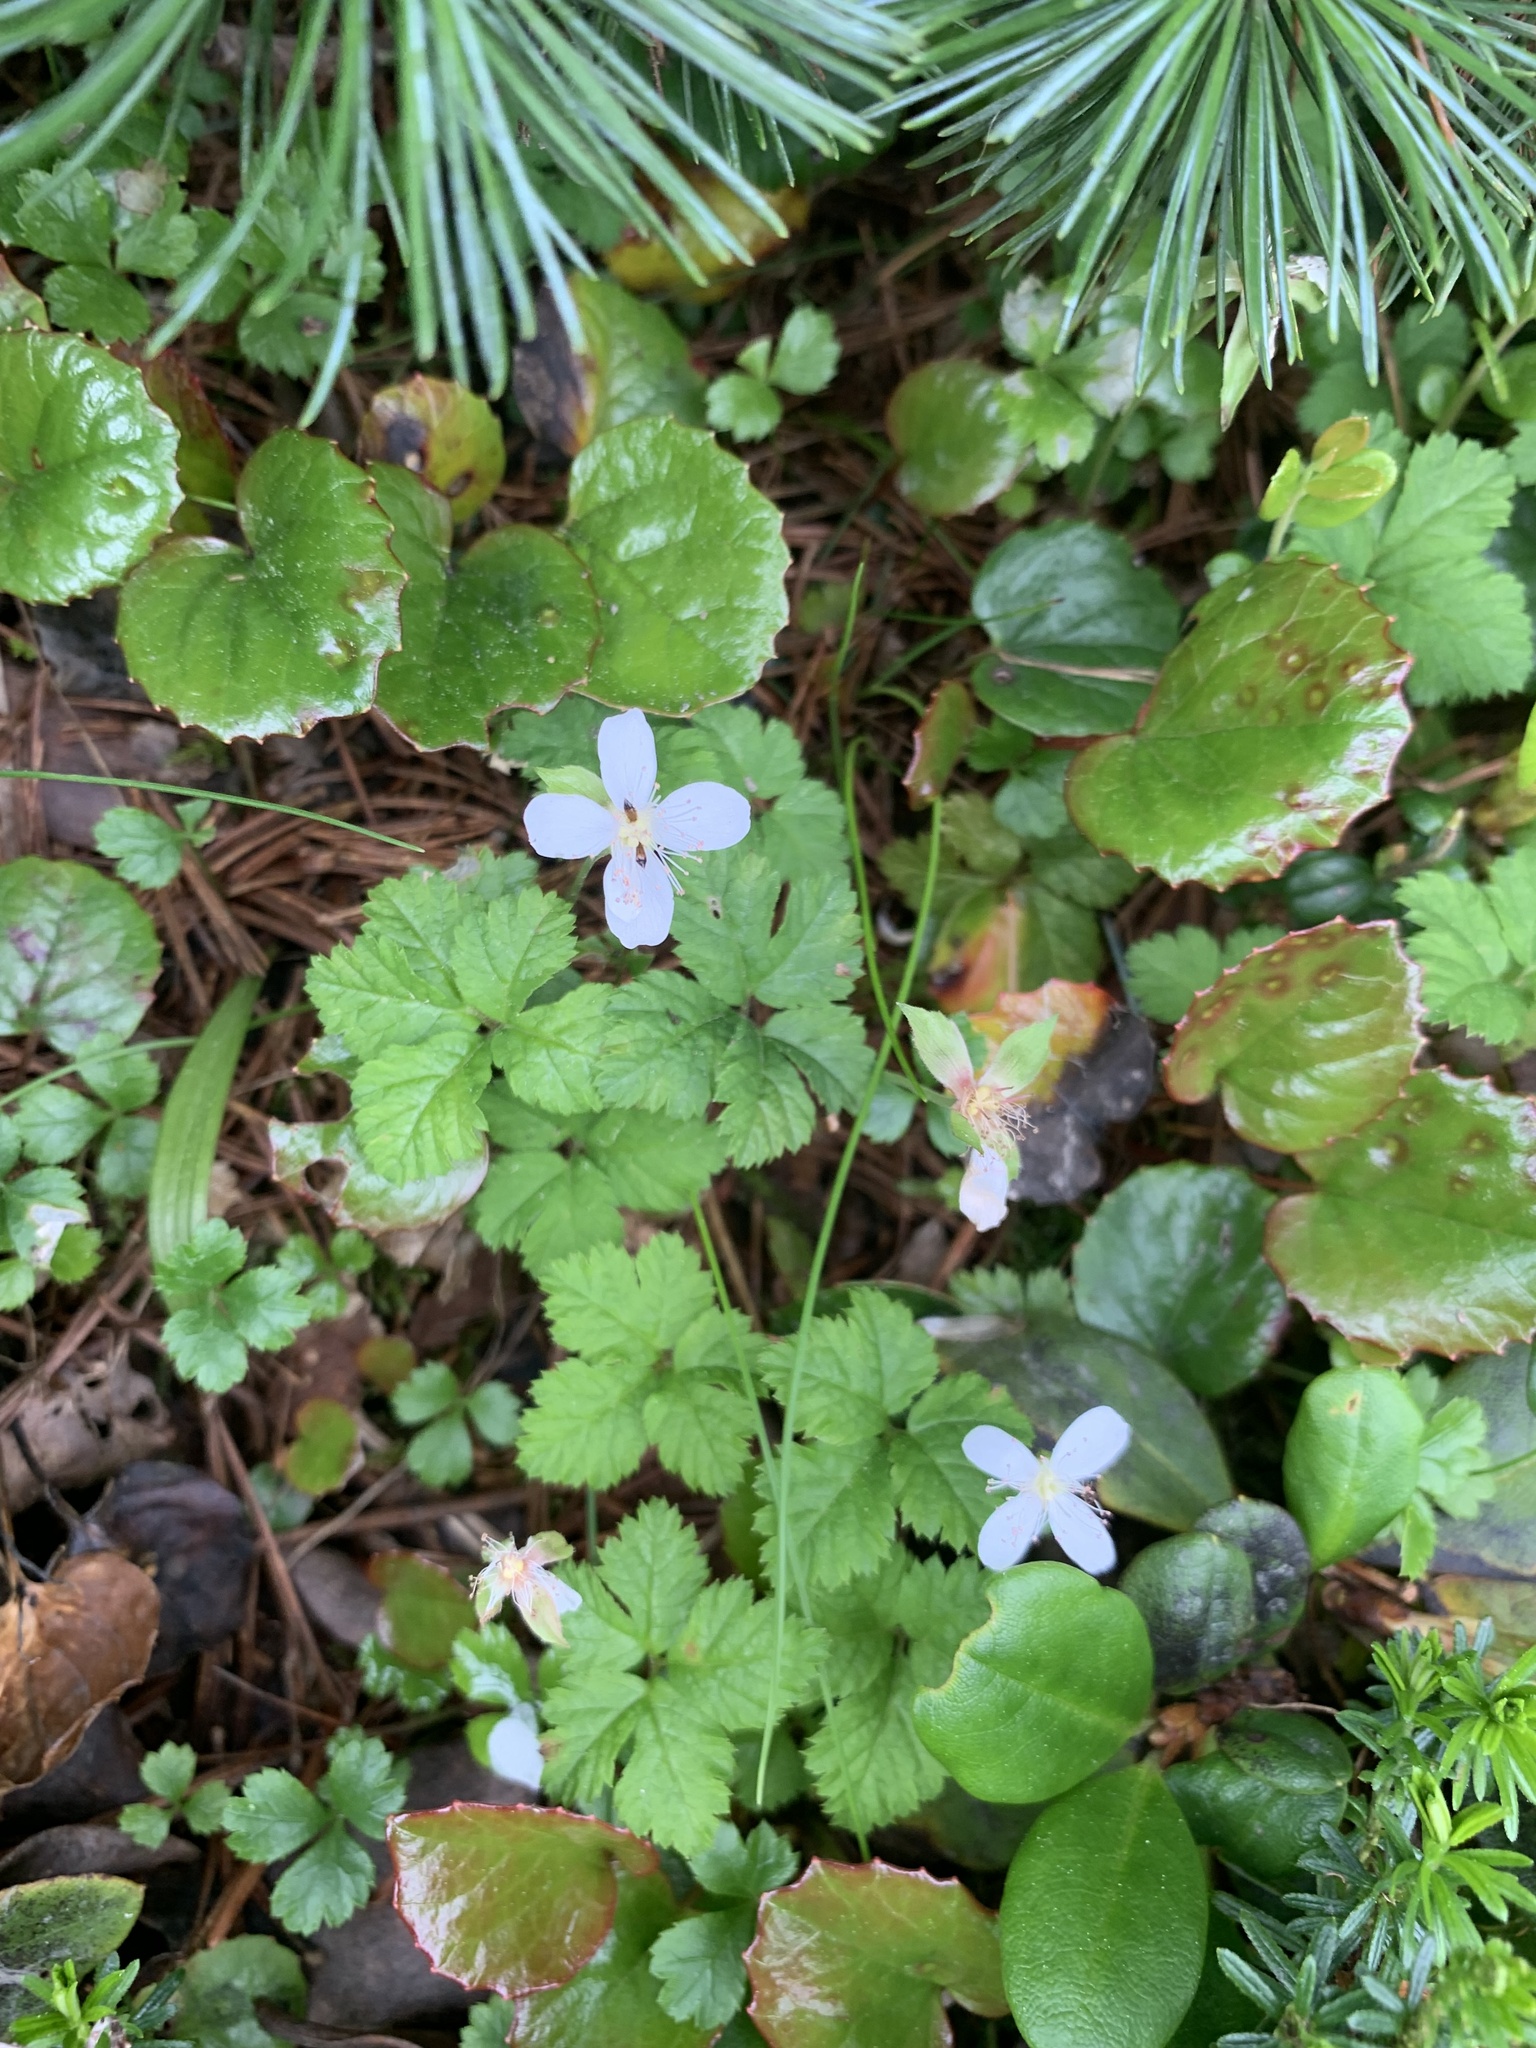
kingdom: Plantae
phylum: Tracheophyta
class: Magnoliopsida
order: Rosales
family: Rosaceae
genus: Rubus
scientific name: Rubus pedatus
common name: Creeping raspberry
